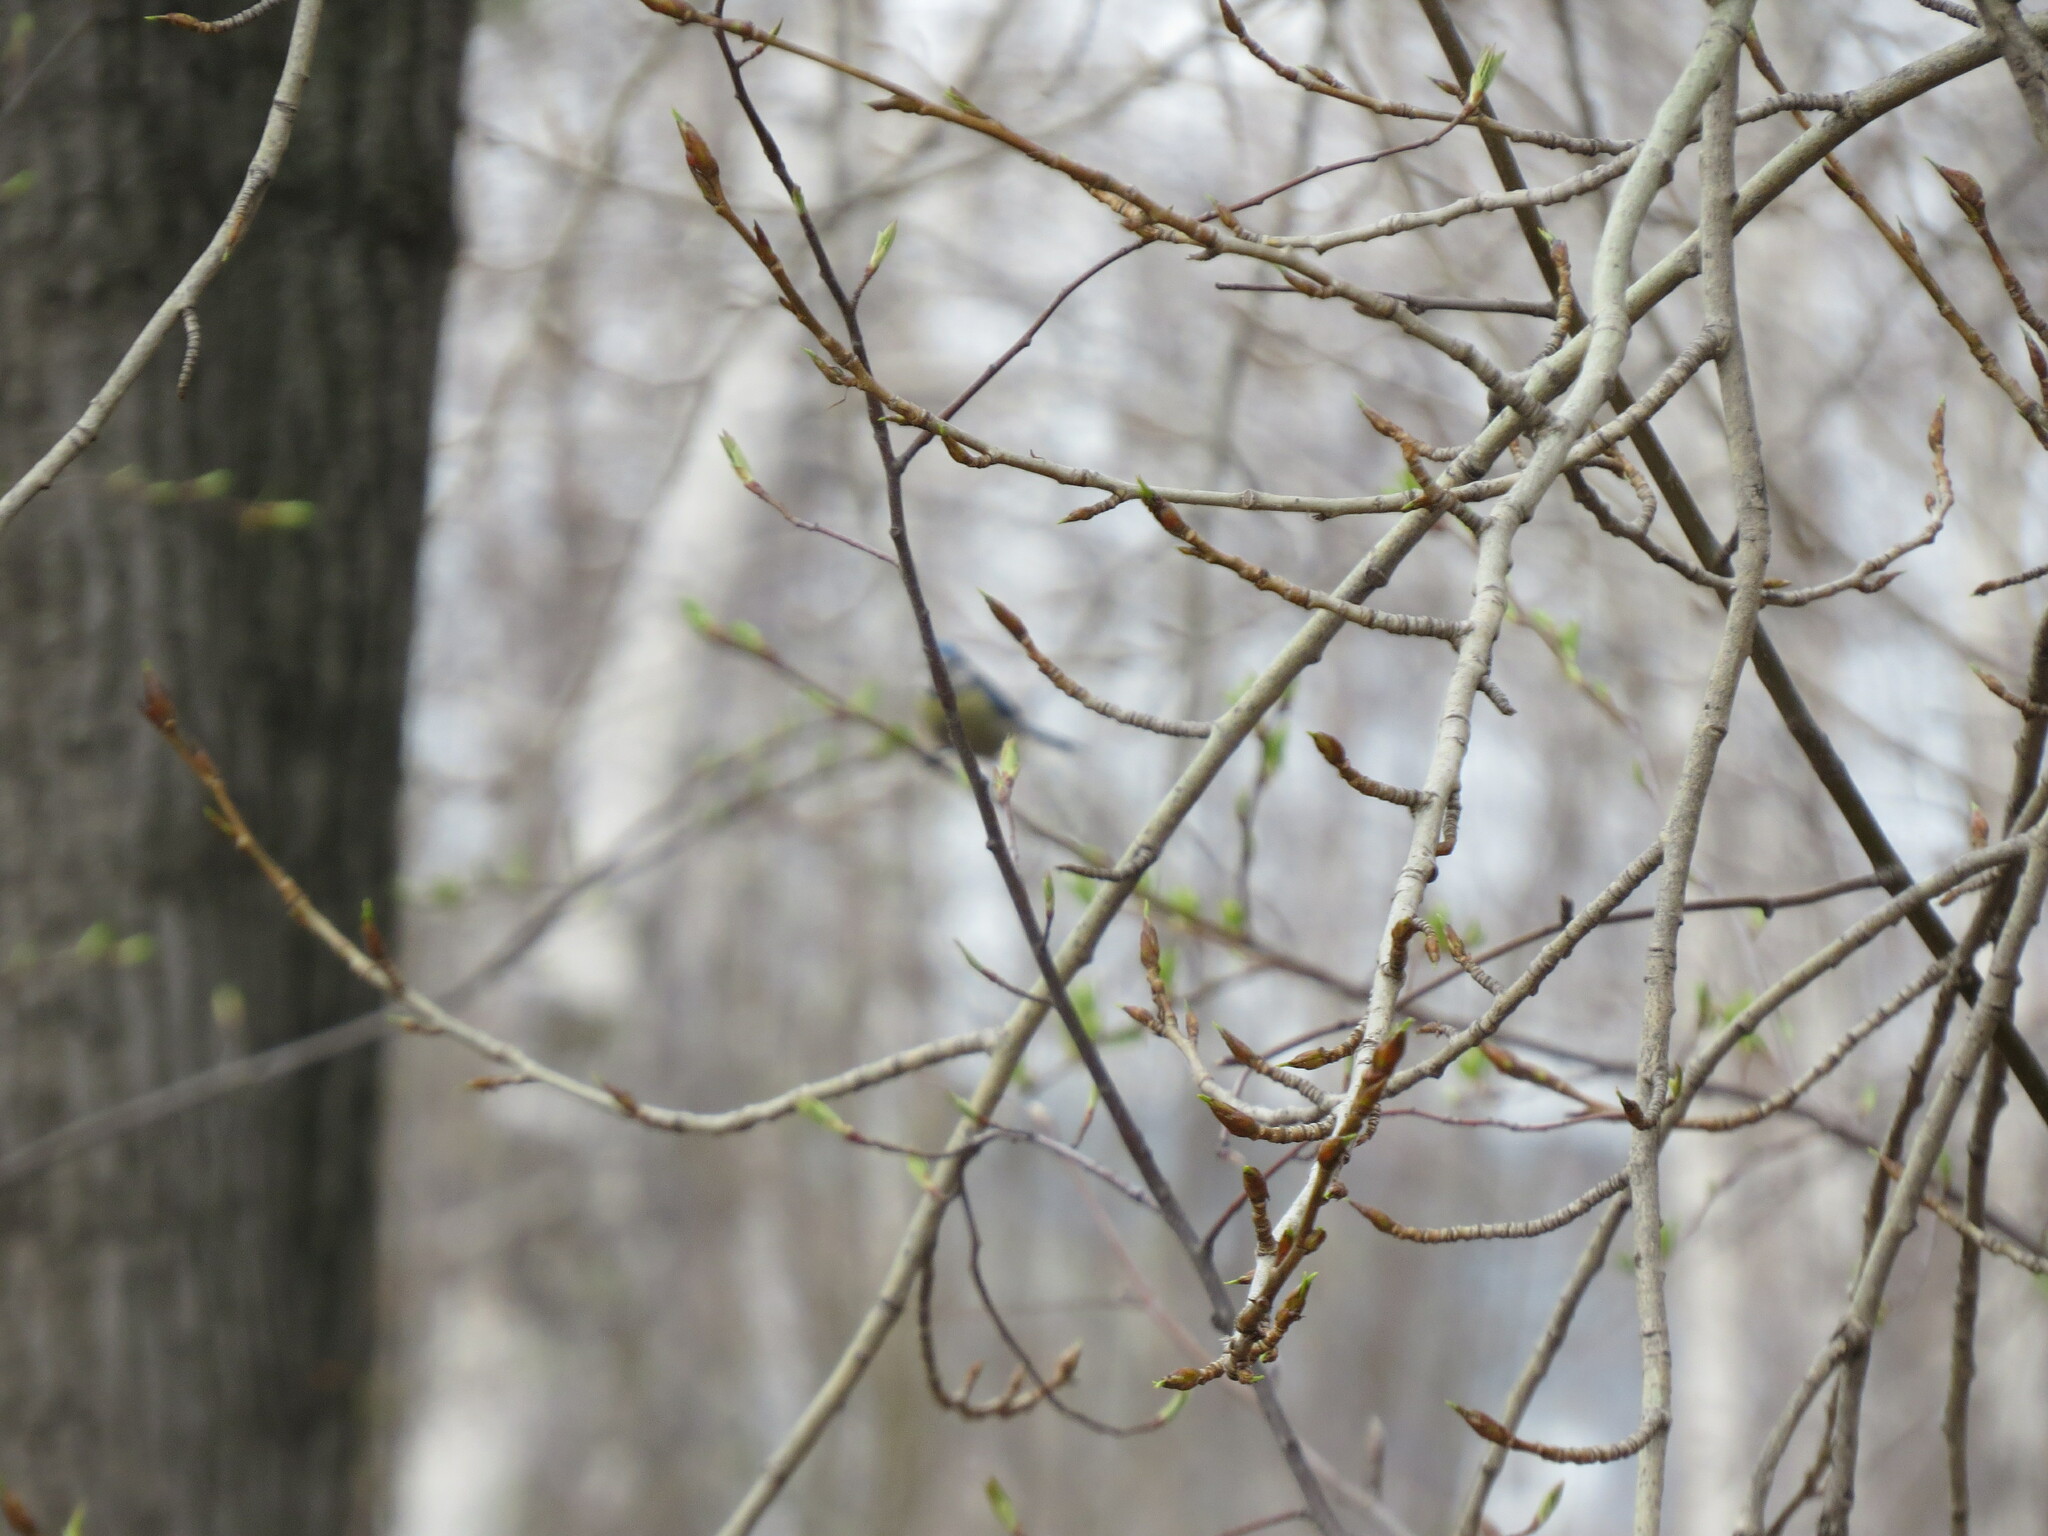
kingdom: Animalia
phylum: Chordata
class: Aves
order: Passeriformes
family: Paridae
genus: Cyanistes
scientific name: Cyanistes caeruleus
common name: Eurasian blue tit
